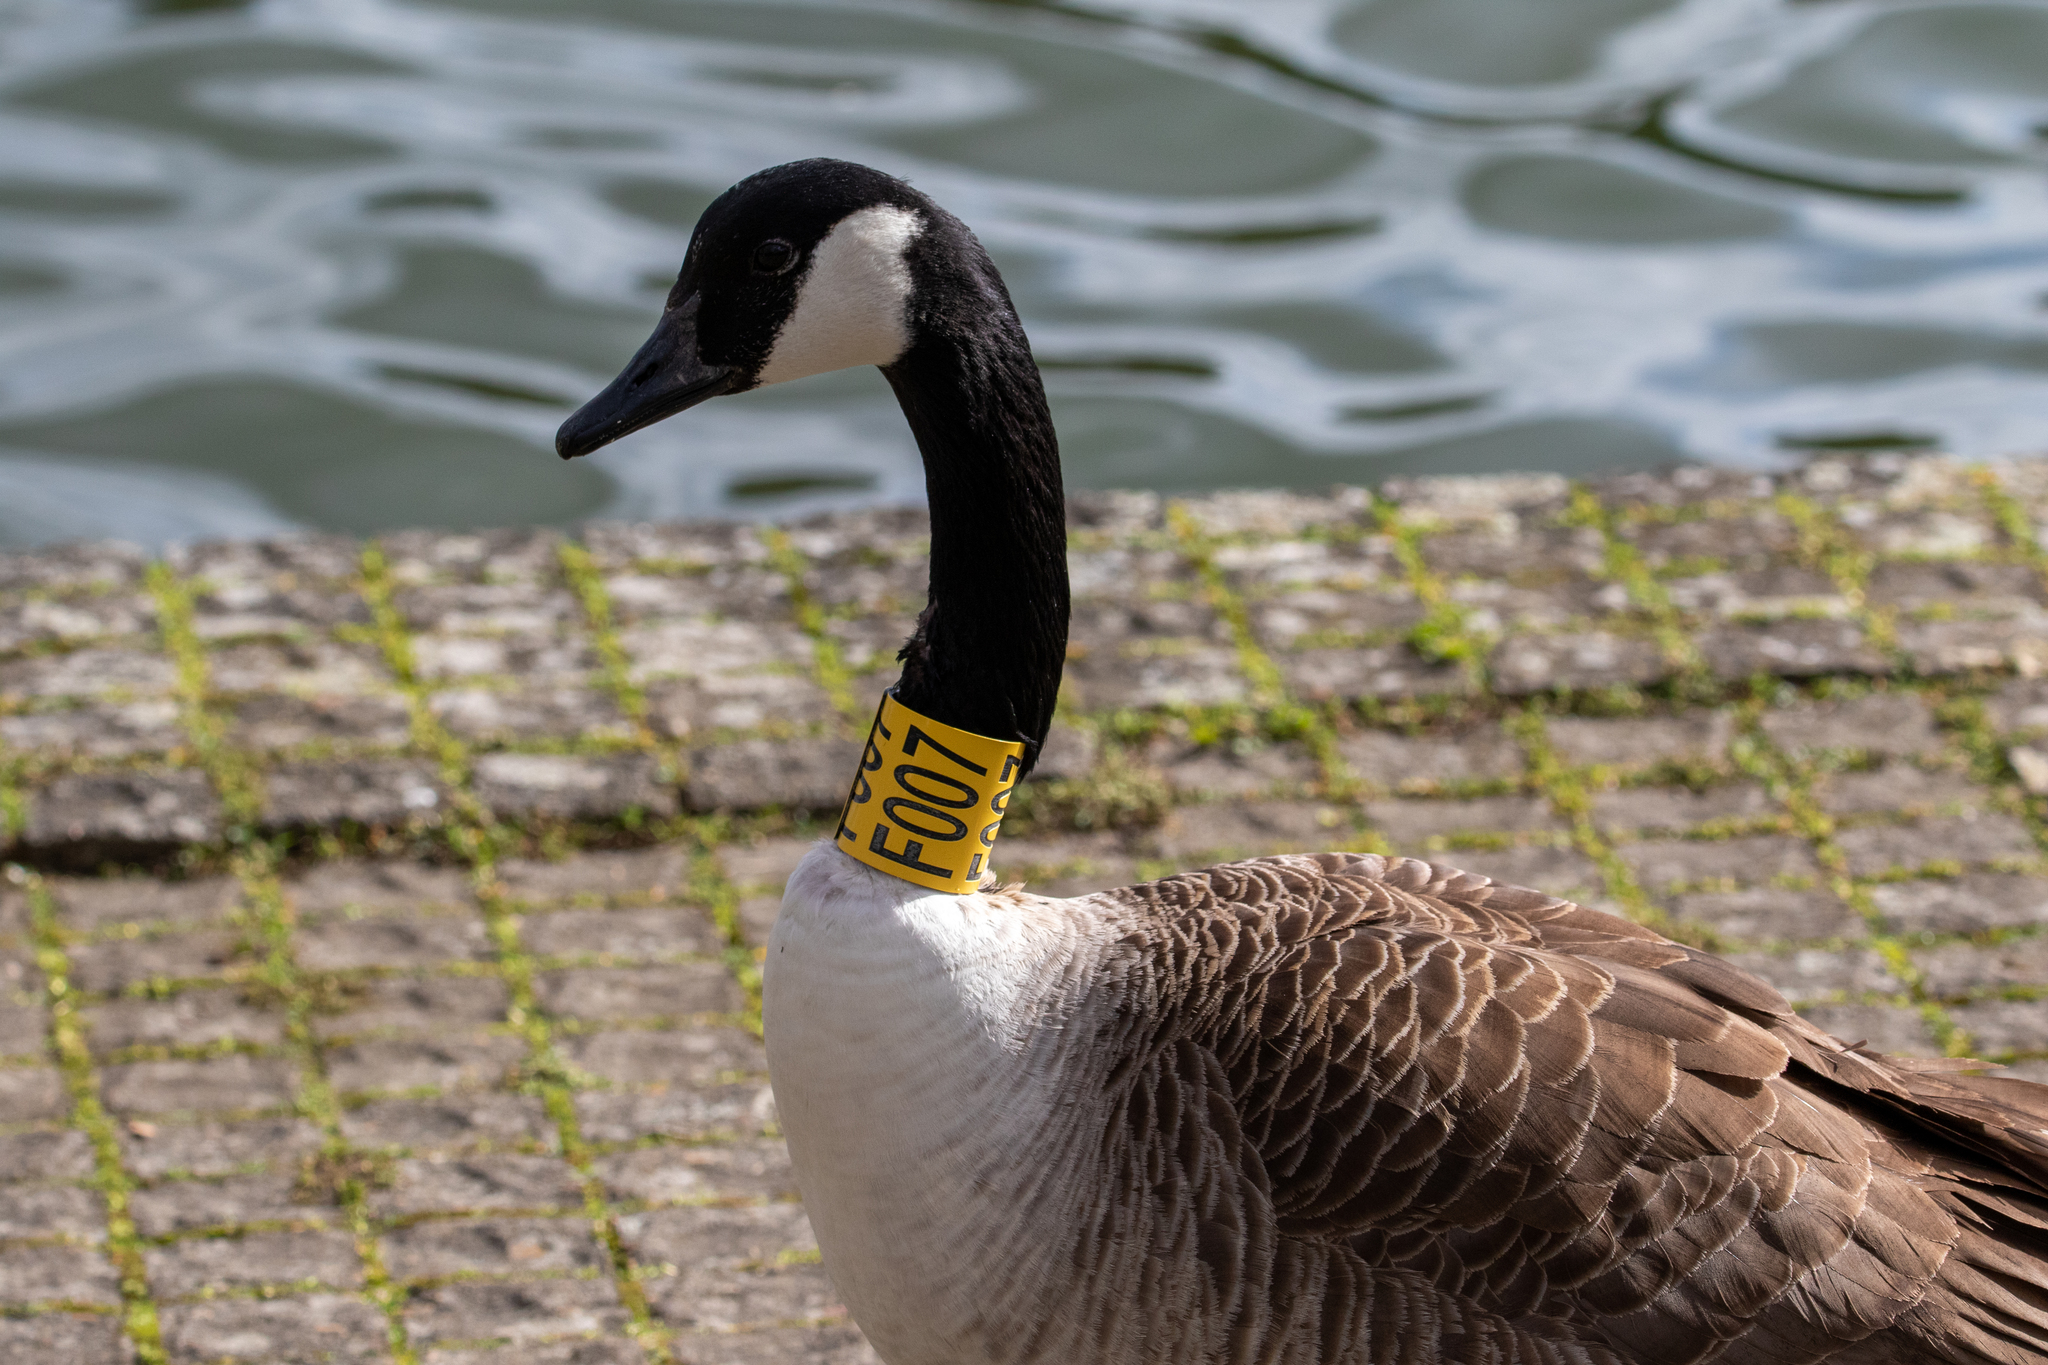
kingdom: Animalia
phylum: Chordata
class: Aves
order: Anseriformes
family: Anatidae
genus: Branta
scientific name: Branta canadensis
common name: Canada goose
